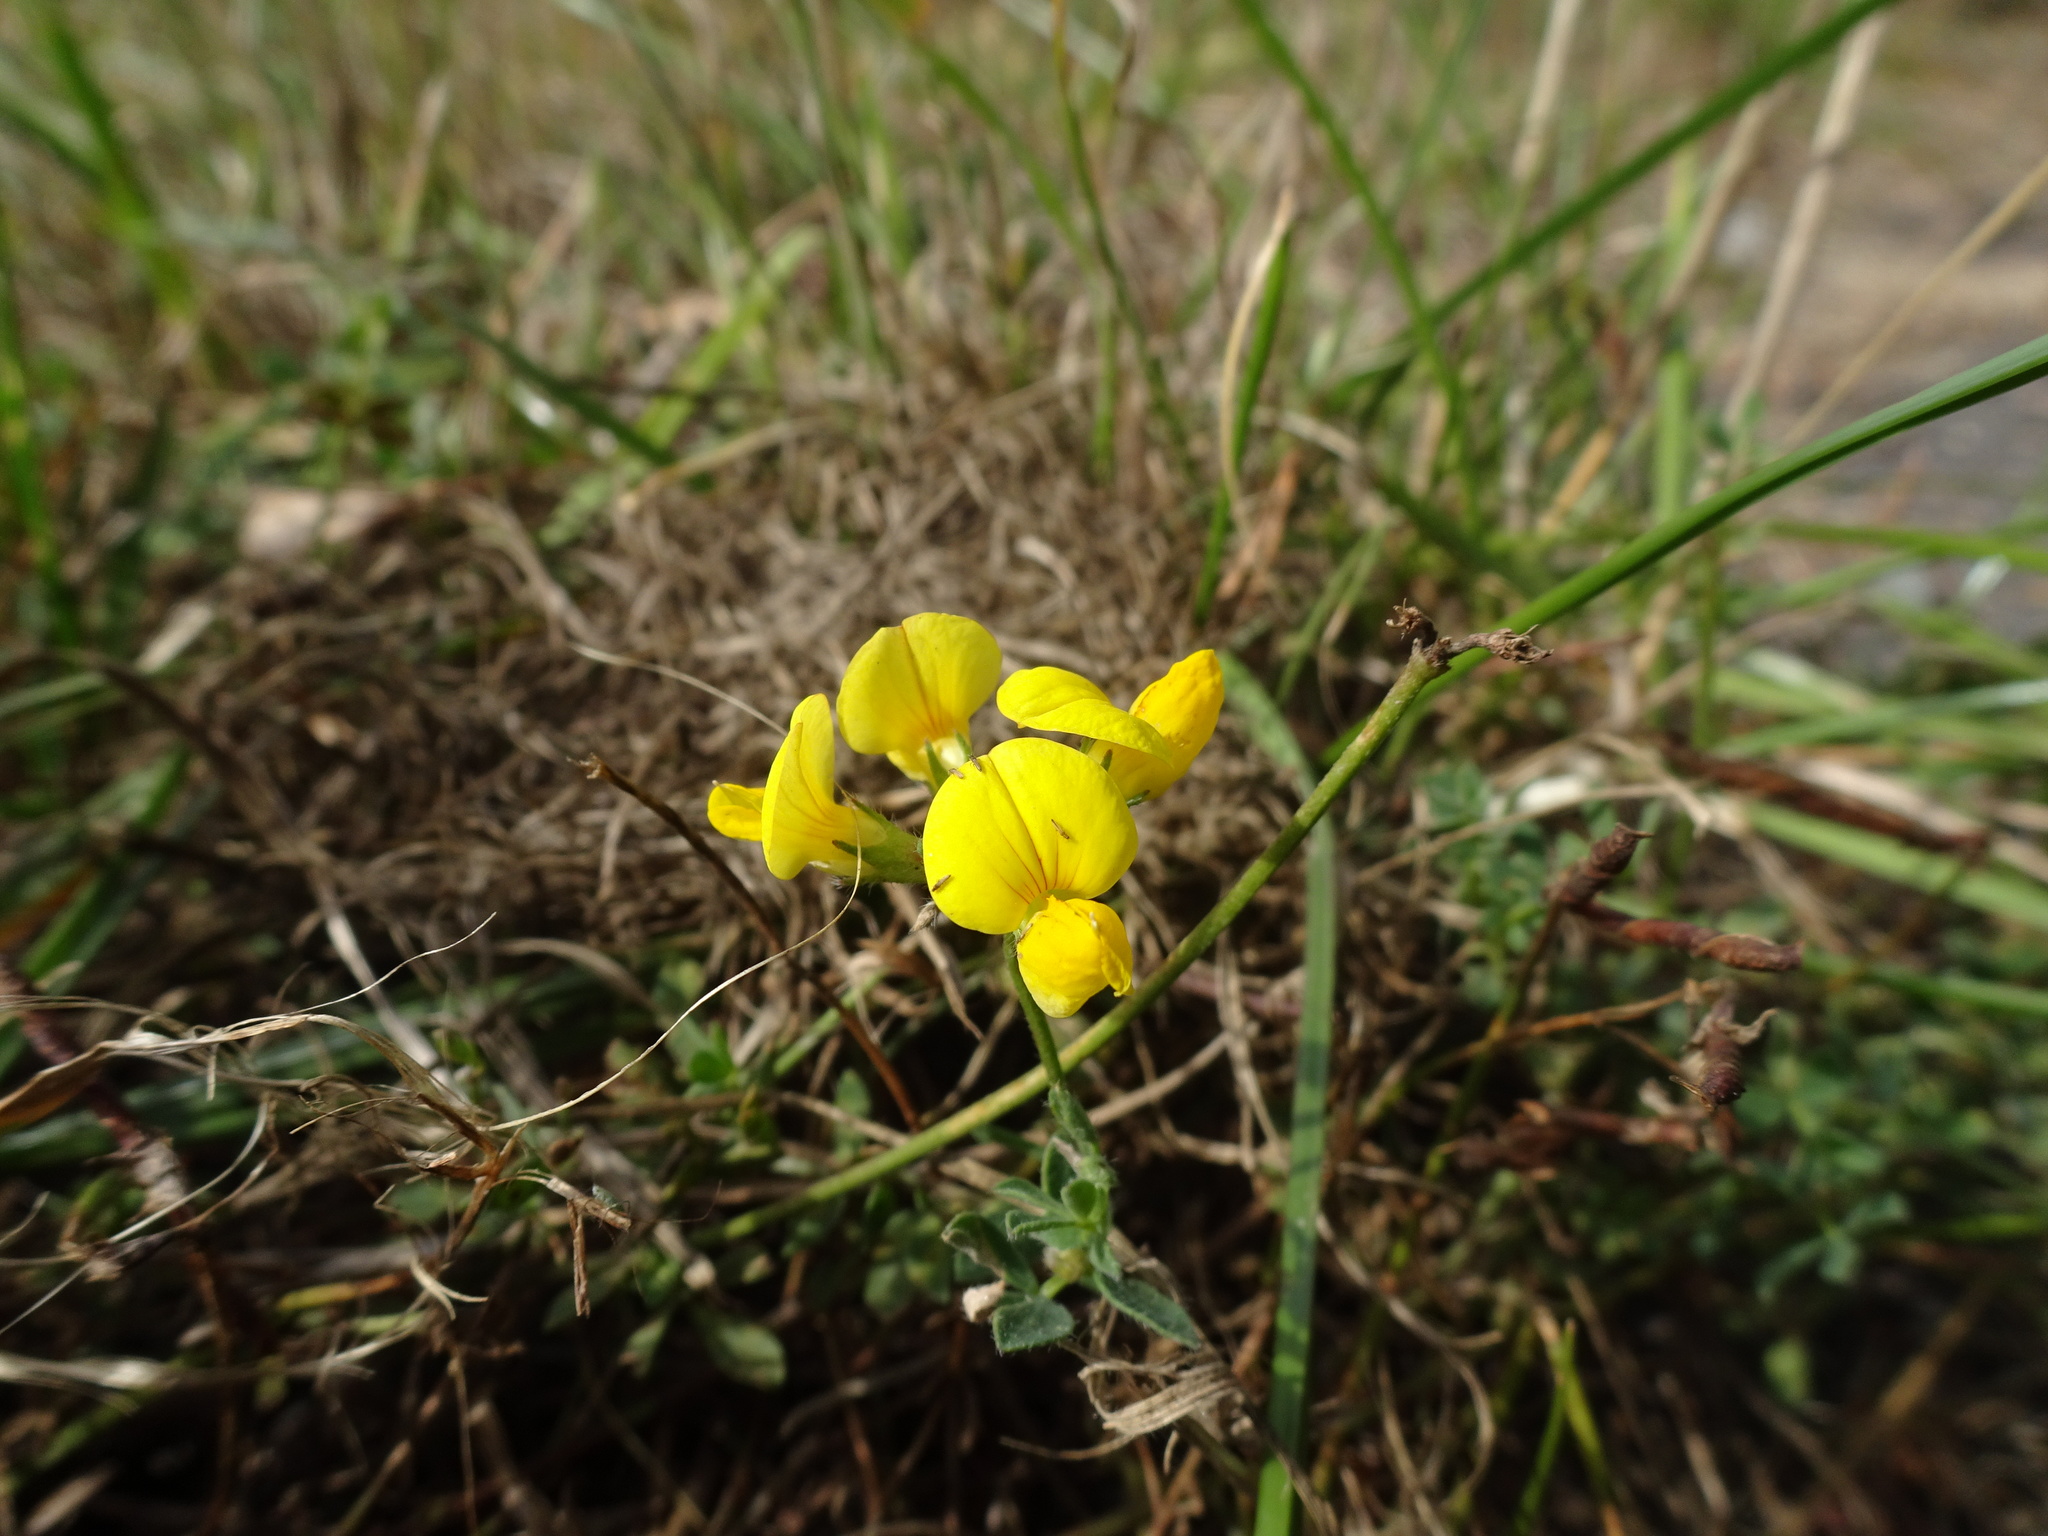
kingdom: Plantae
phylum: Tracheophyta
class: Magnoliopsida
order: Fabales
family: Fabaceae
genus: Lotus
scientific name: Lotus corniculatus
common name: Common bird's-foot-trefoil
